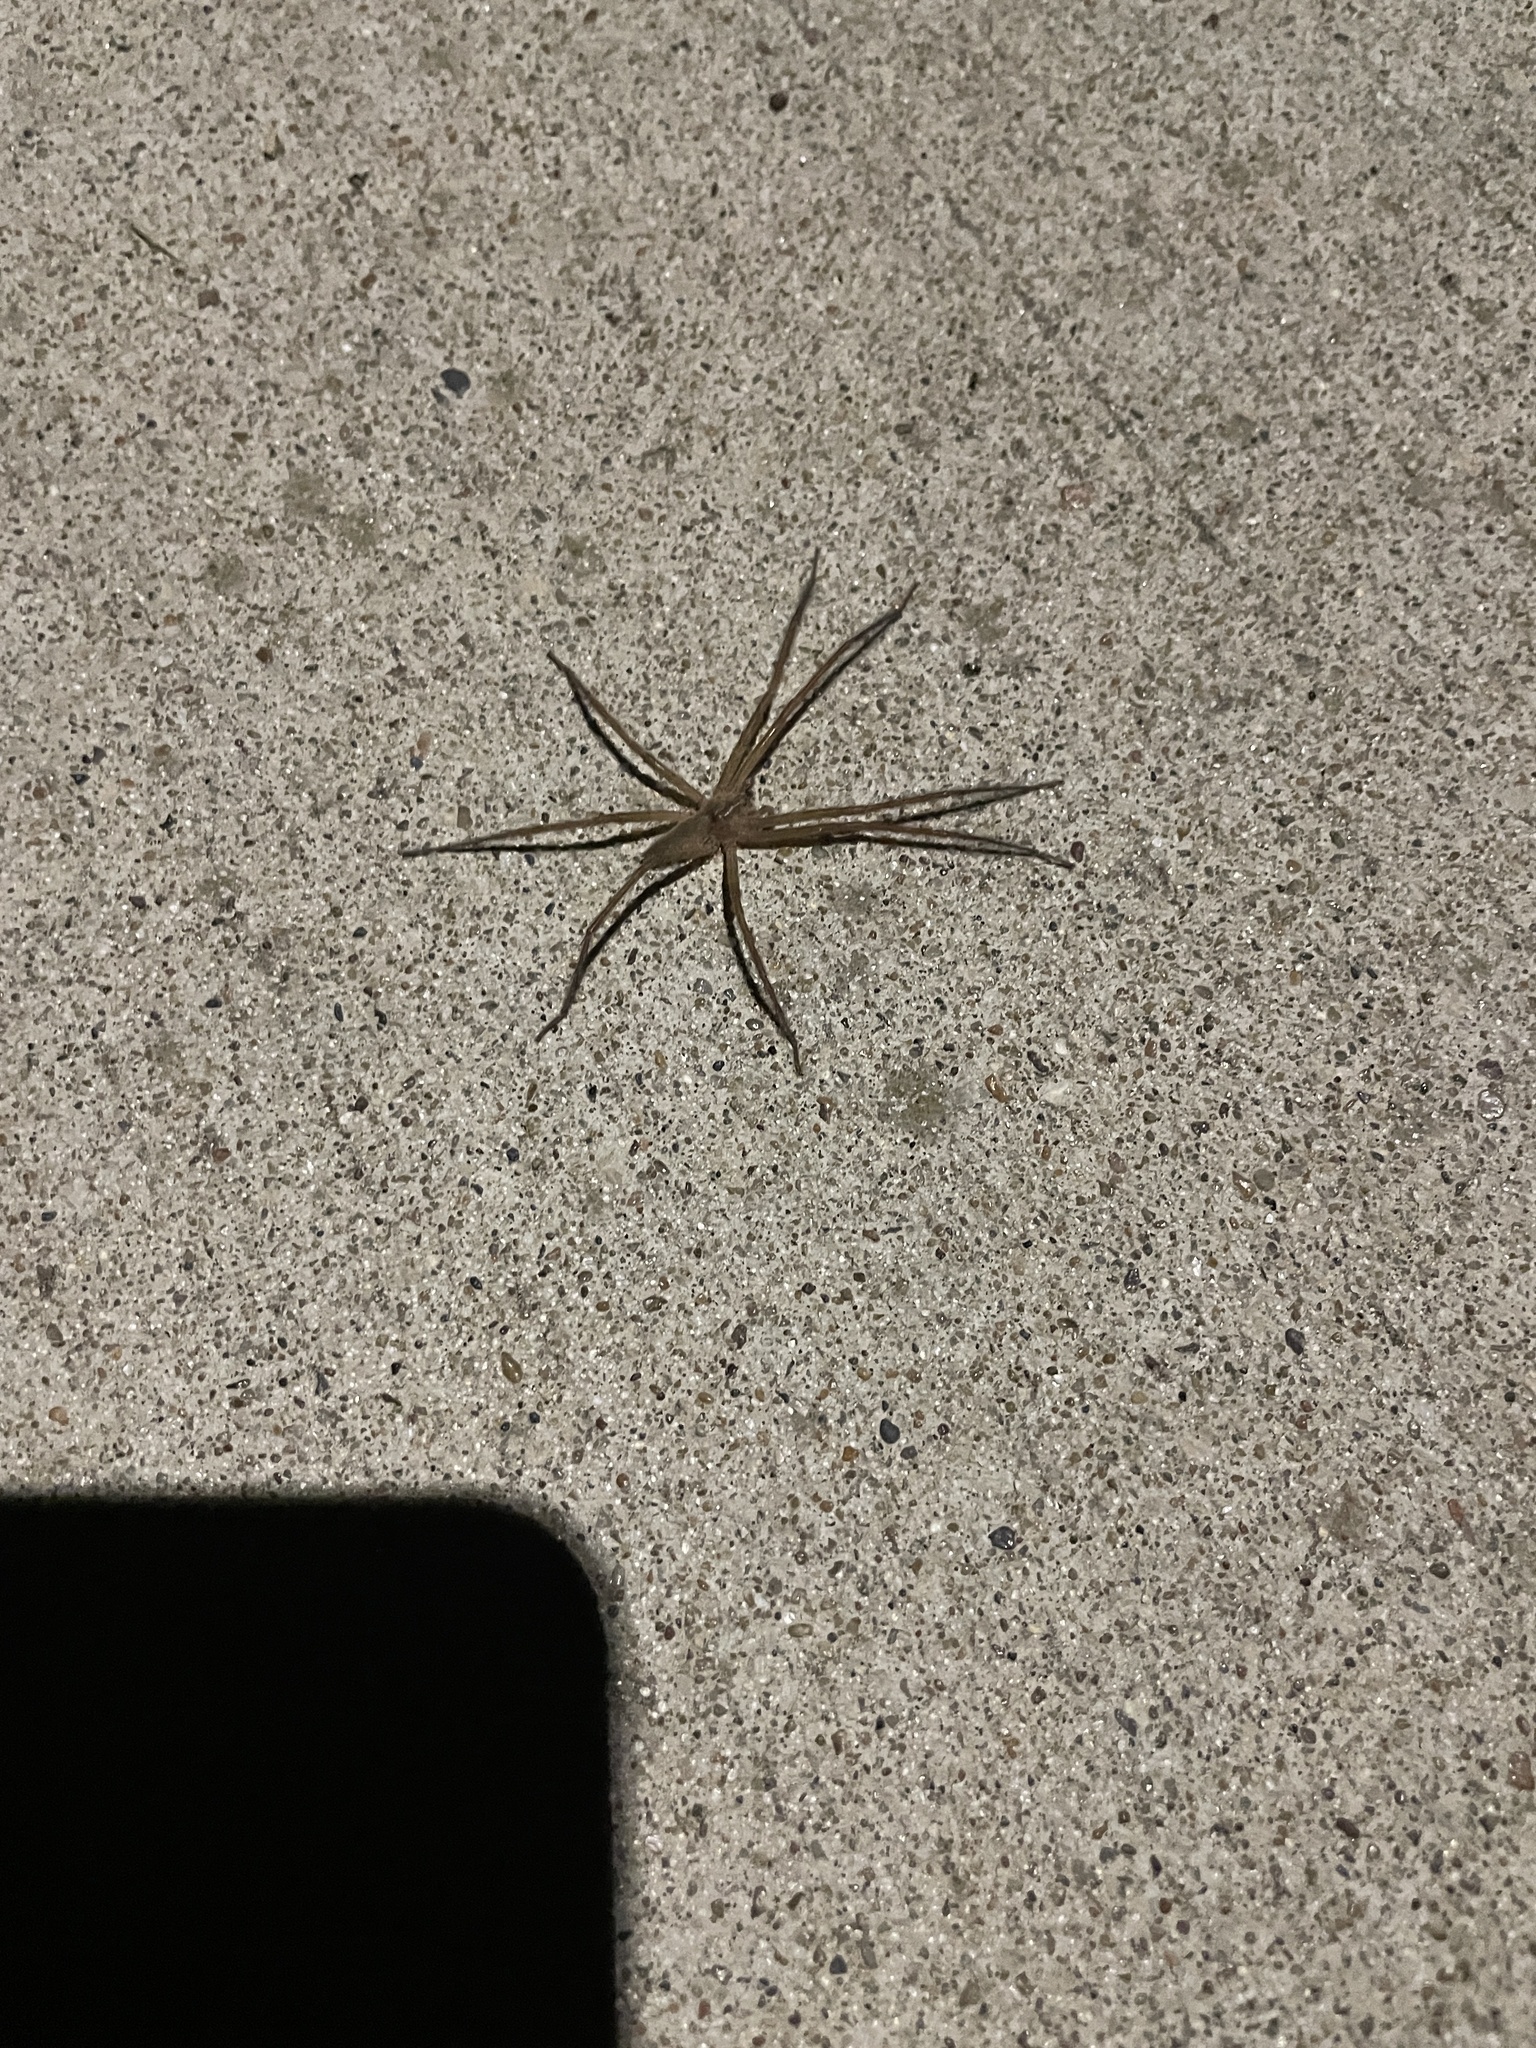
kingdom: Animalia
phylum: Arthropoda
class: Arachnida
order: Araneae
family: Pisauridae
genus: Pisaurina
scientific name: Pisaurina mira
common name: American nursery web spider
